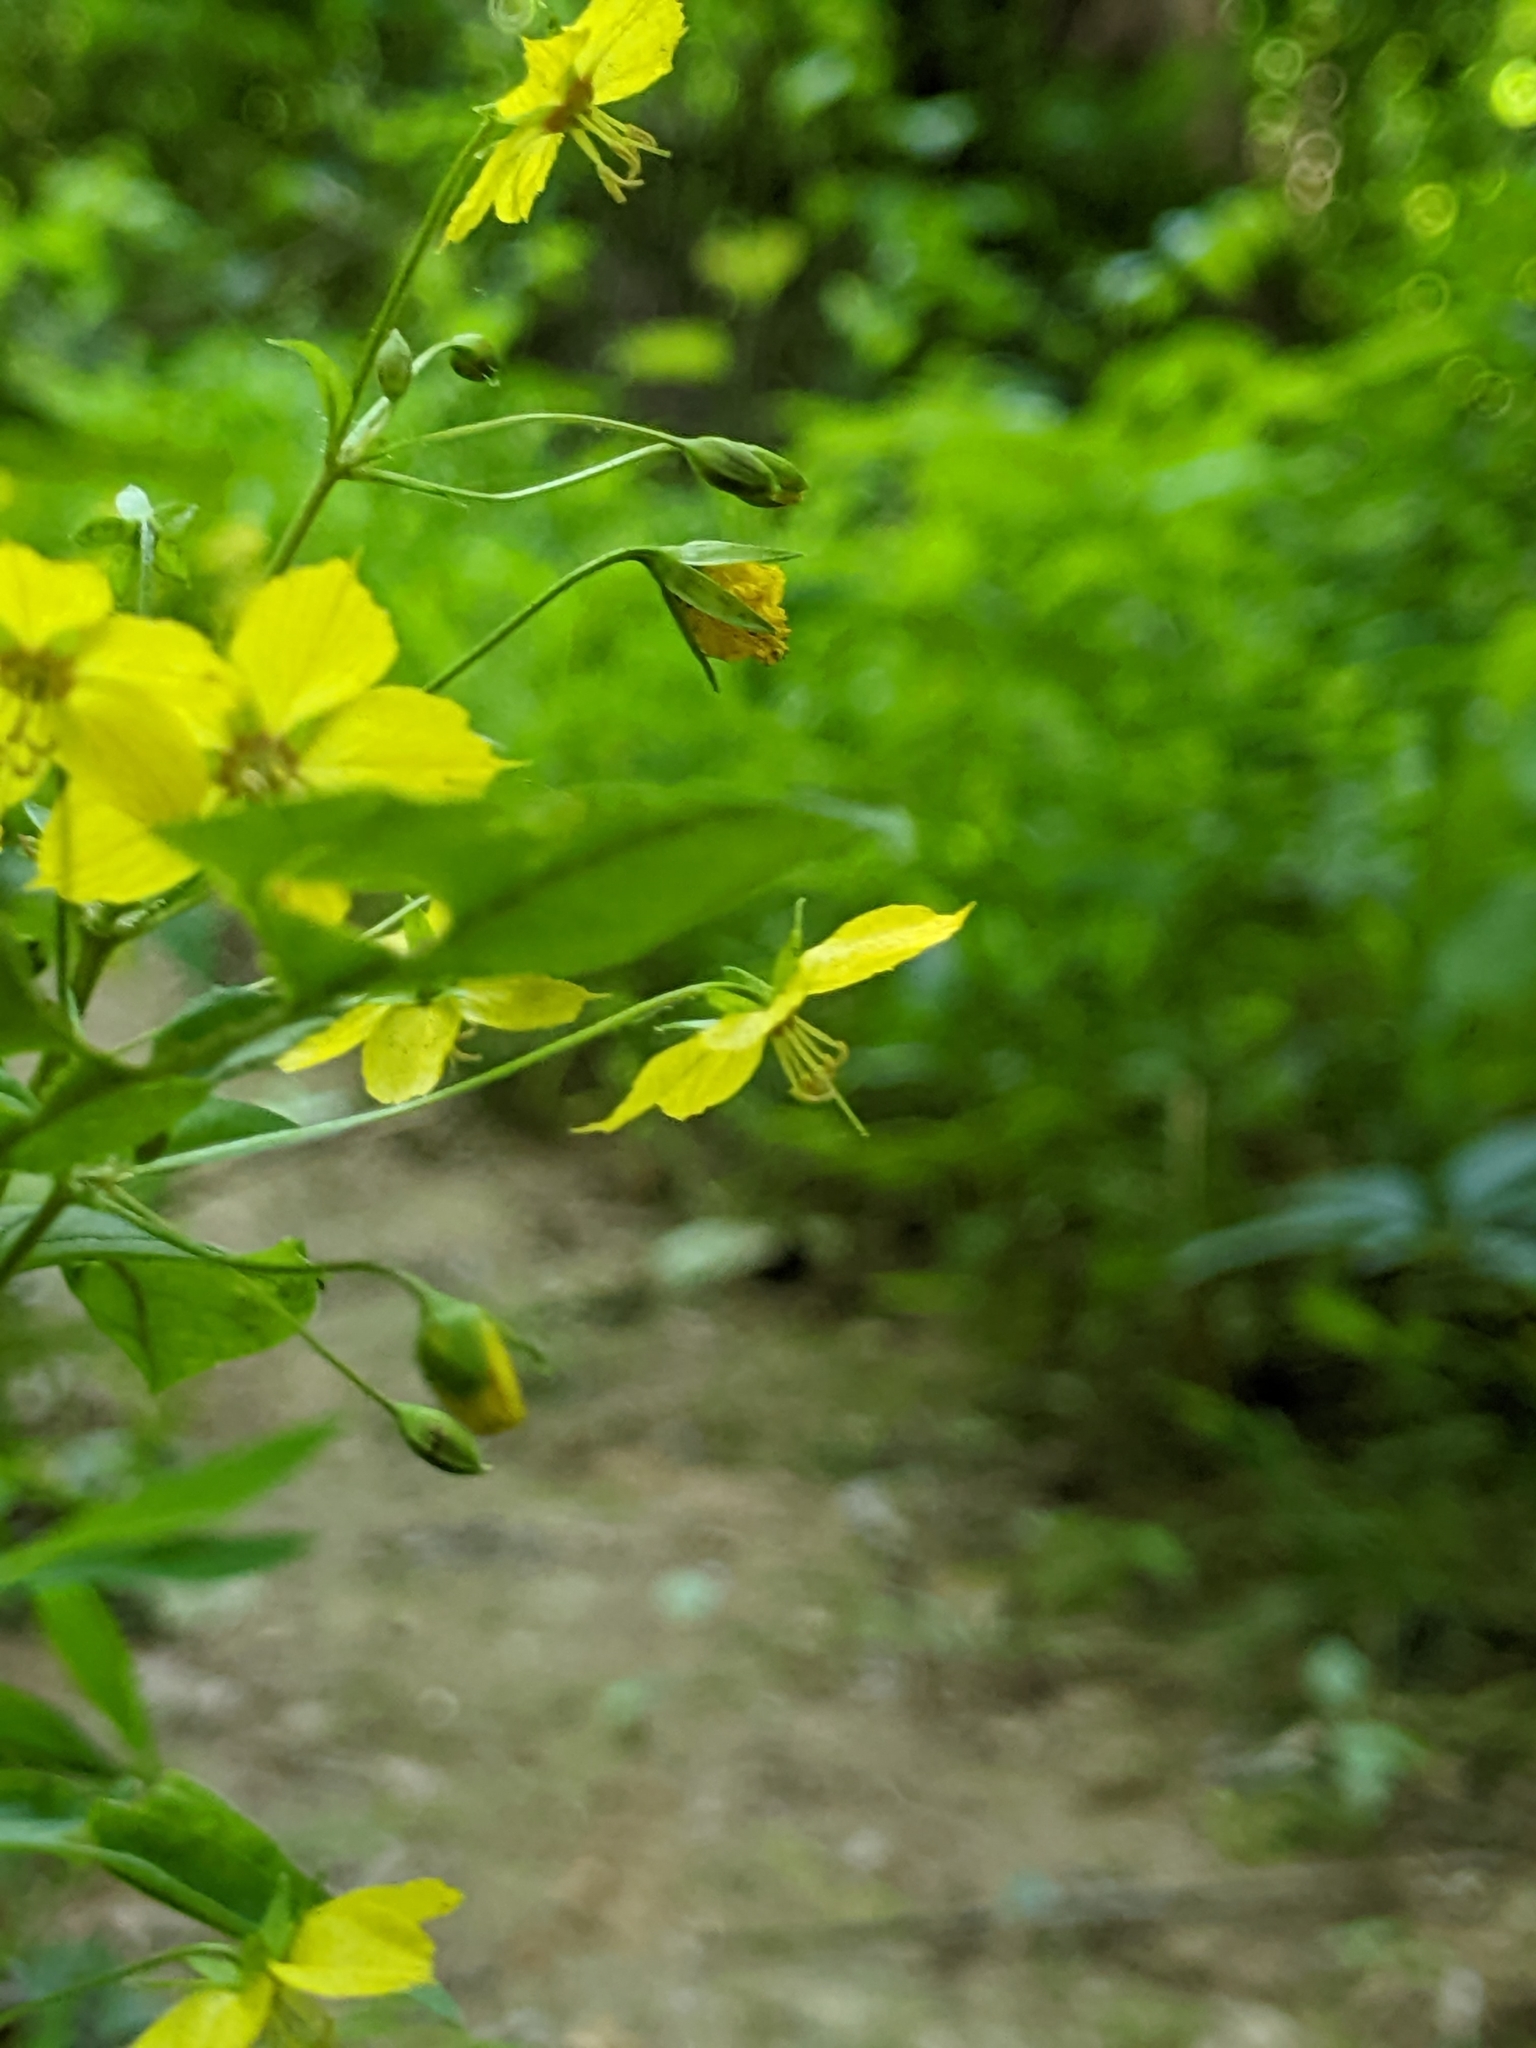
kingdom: Plantae
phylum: Tracheophyta
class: Magnoliopsida
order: Ericales
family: Primulaceae
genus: Lysimachia
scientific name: Lysimachia ciliata
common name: Fringed loosestrife
